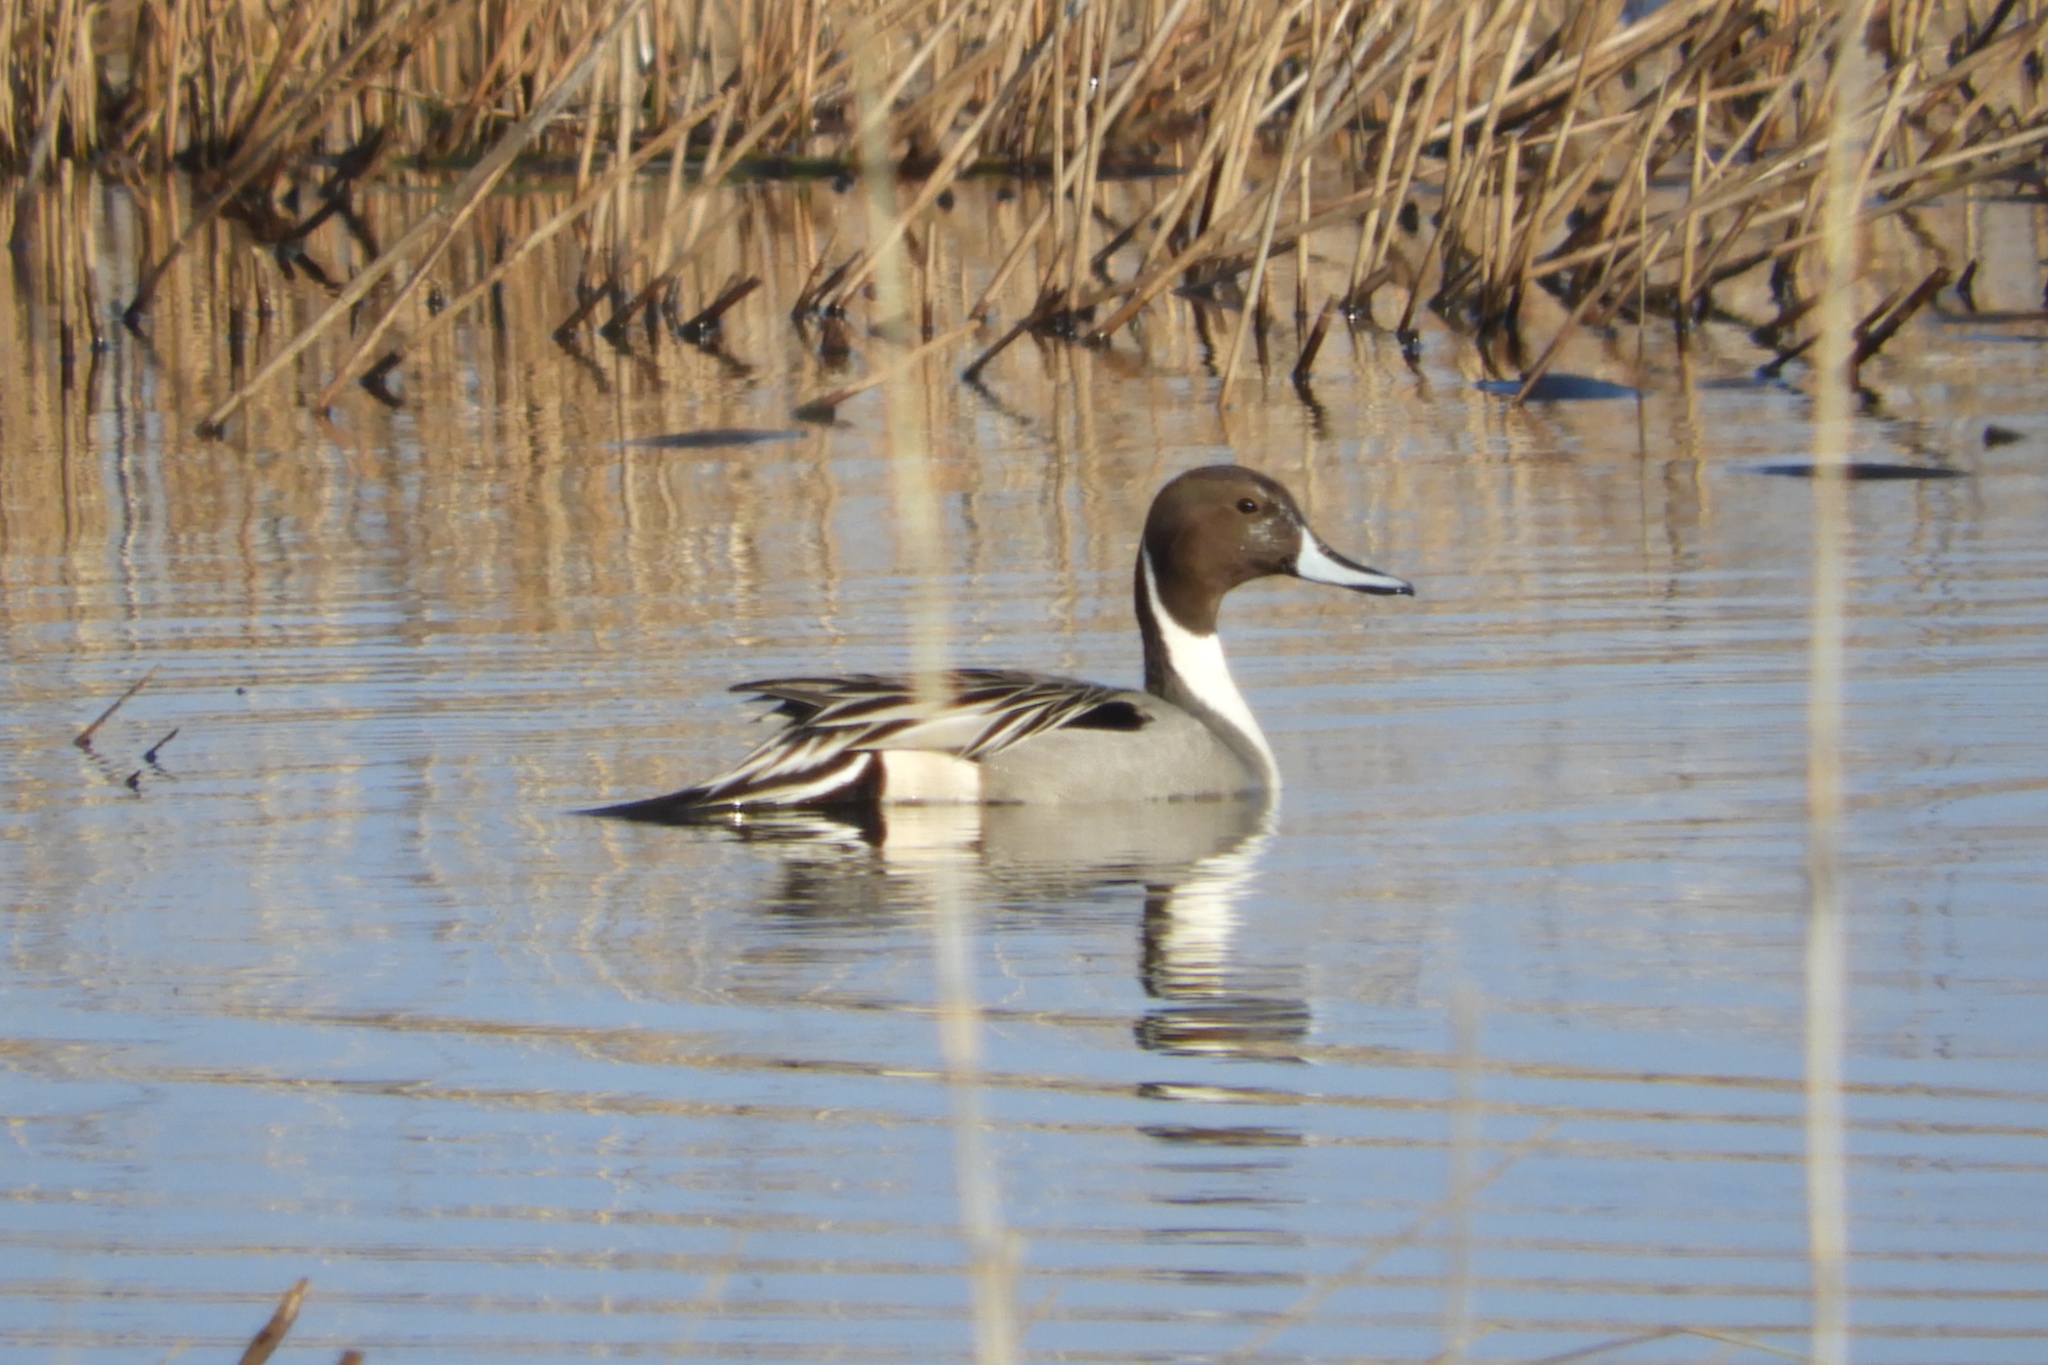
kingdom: Animalia
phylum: Chordata
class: Aves
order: Anseriformes
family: Anatidae
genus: Anas
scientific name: Anas acuta
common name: Northern pintail
